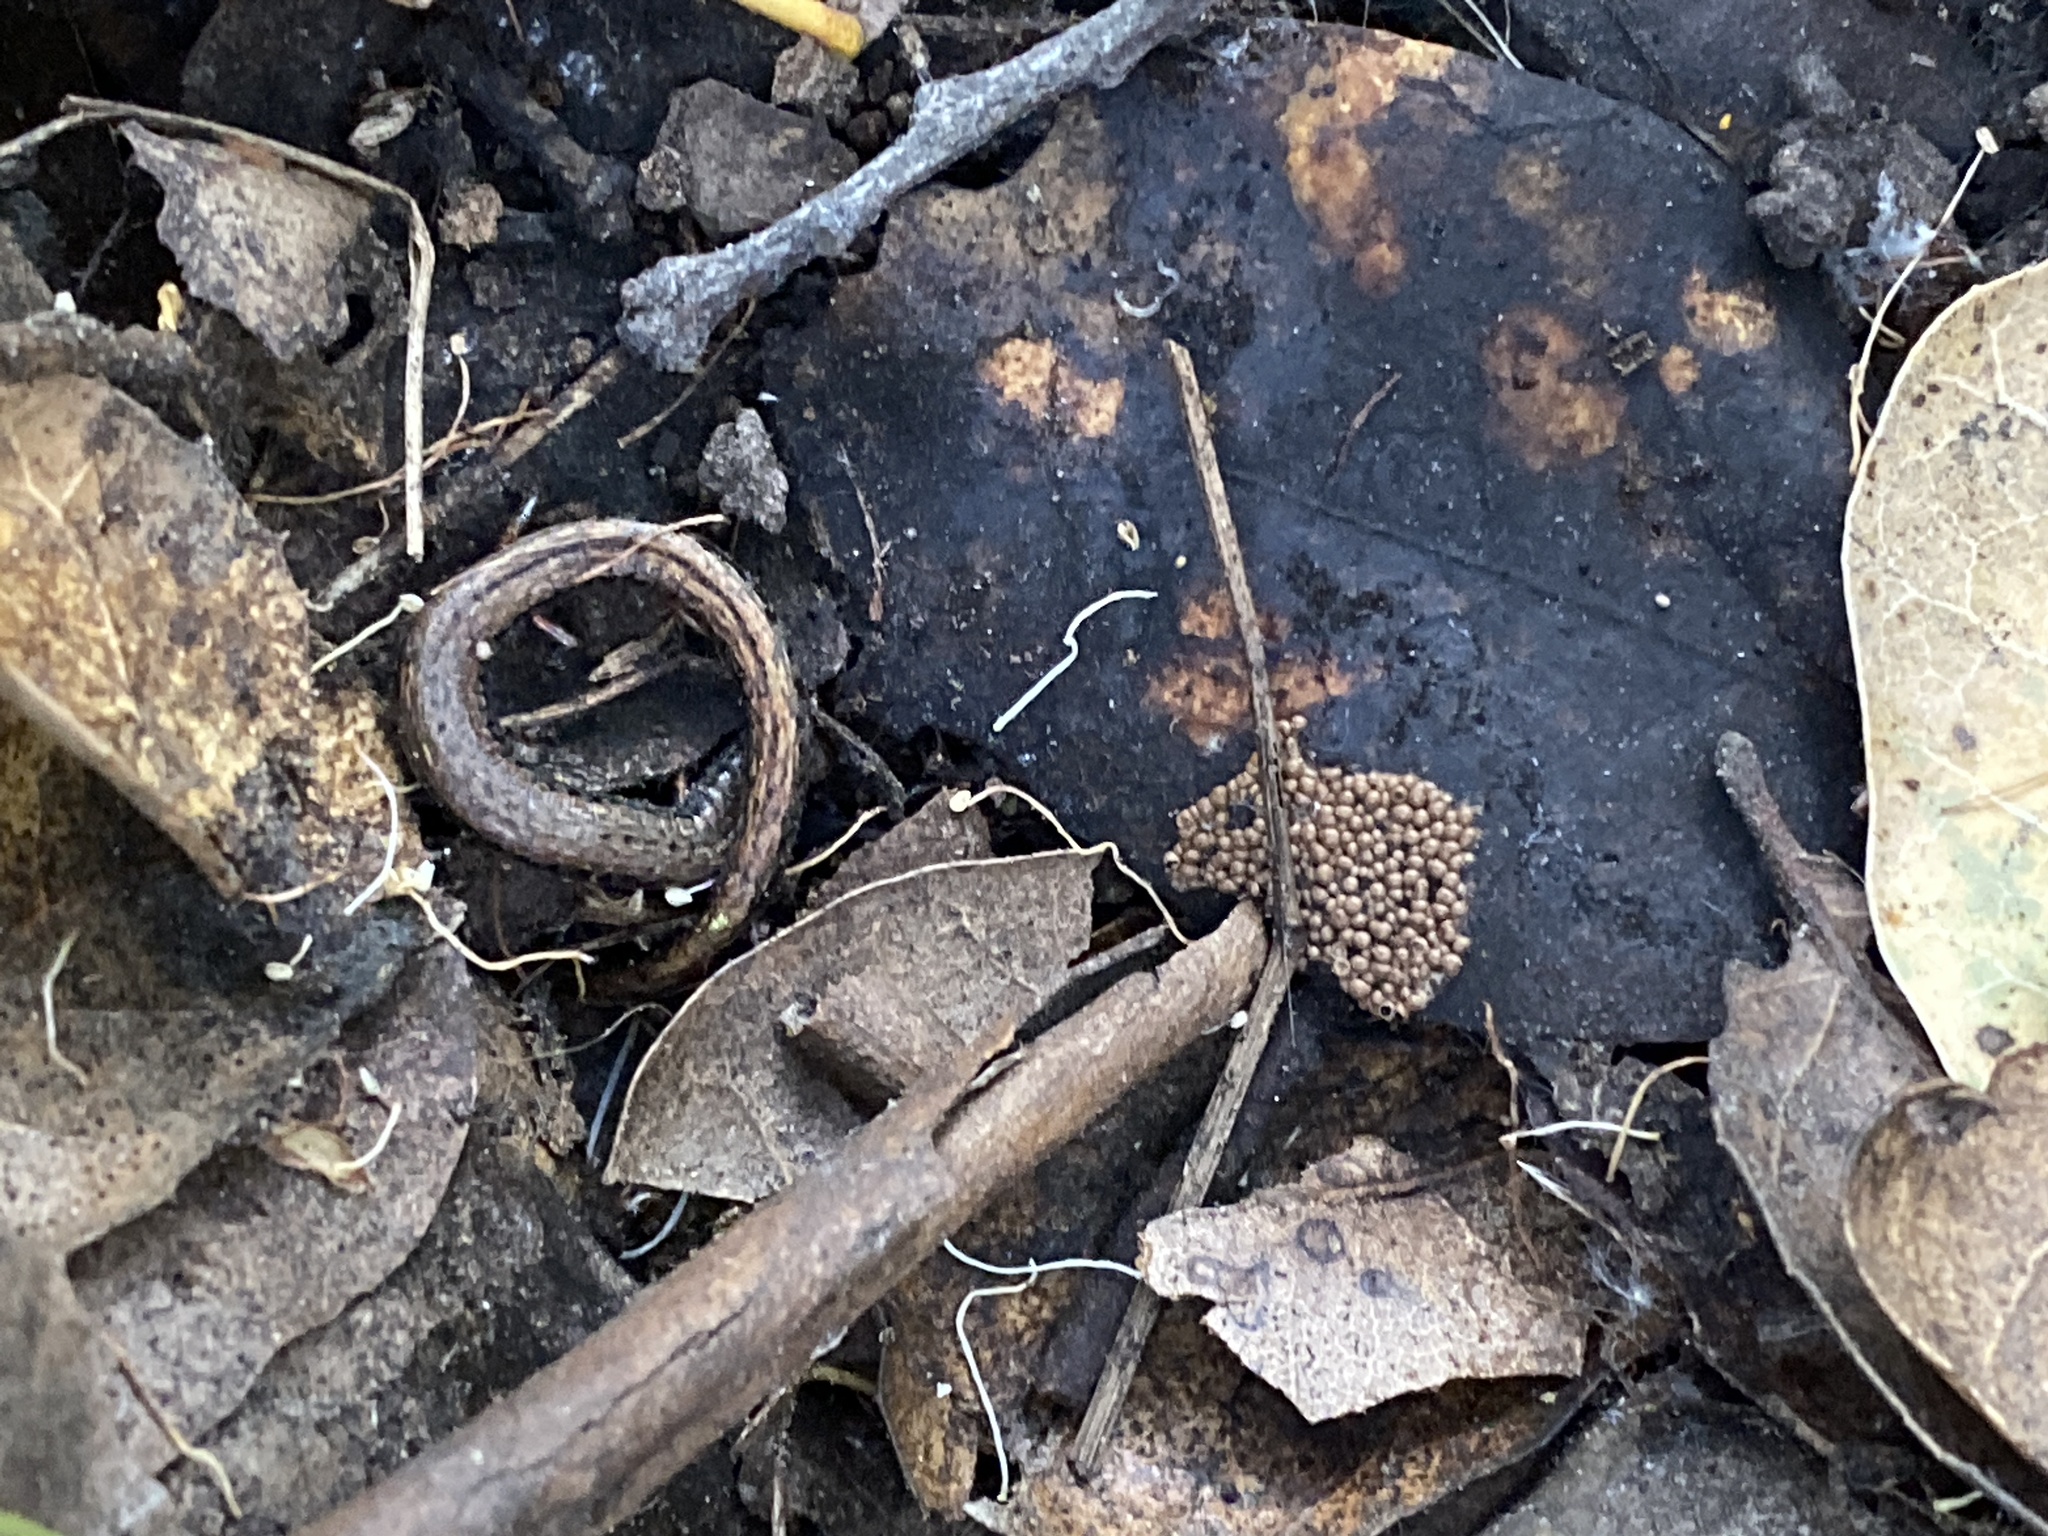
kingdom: Animalia
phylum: Chordata
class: Amphibia
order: Caudata
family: Plethodontidae
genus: Batrachoseps
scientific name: Batrachoseps attenuatus
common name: California slender salamander
